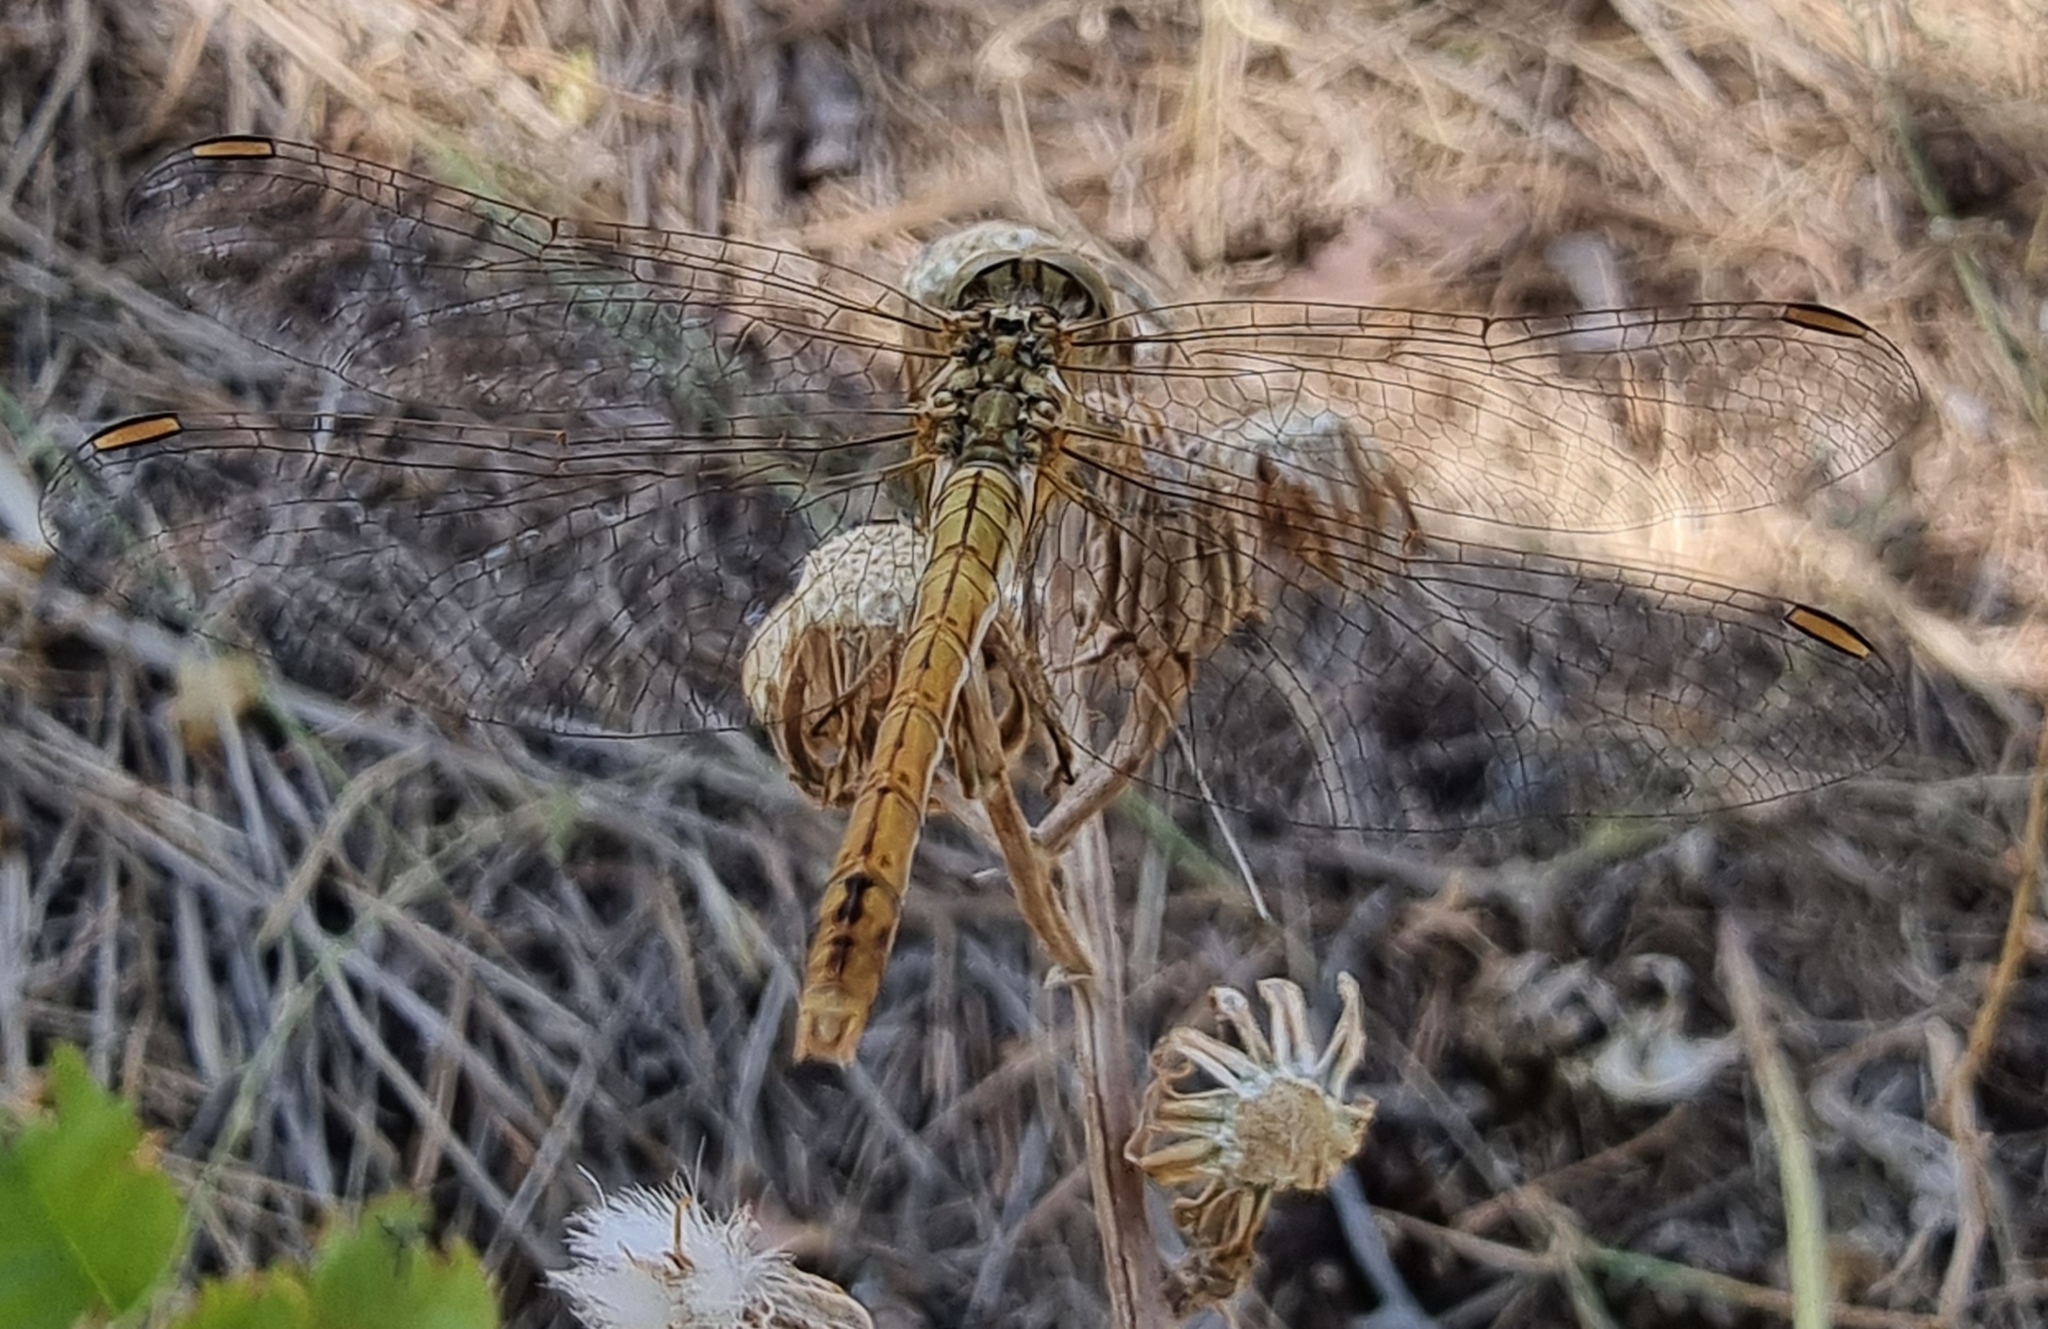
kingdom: Animalia
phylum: Arthropoda
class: Insecta
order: Odonata
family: Libellulidae
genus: Sympetrum
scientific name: Sympetrum meridionale
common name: Southern darter
